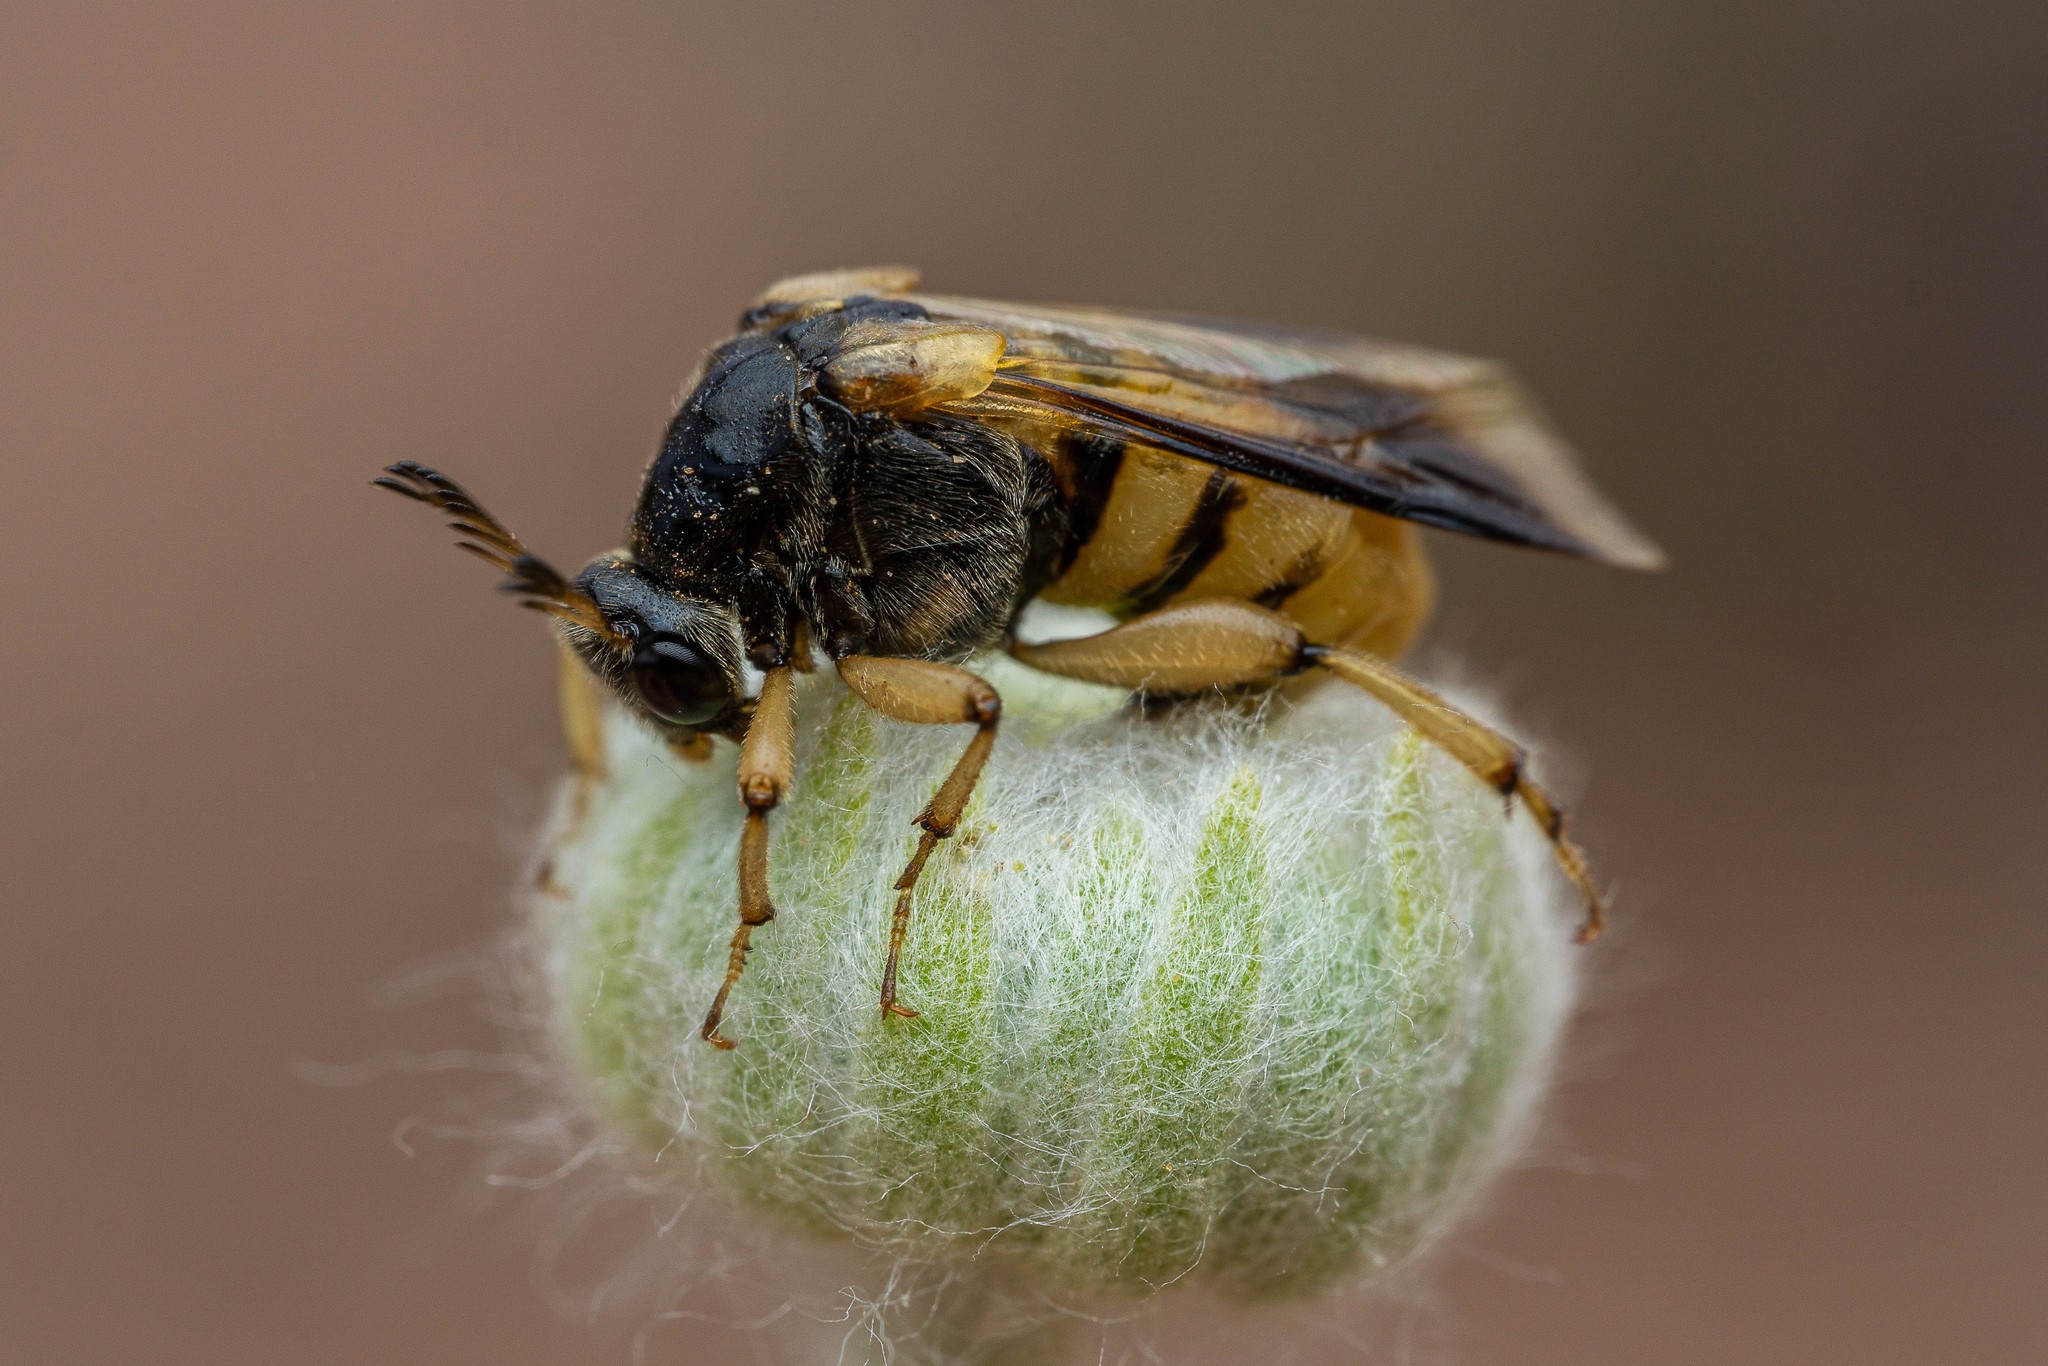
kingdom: Animalia
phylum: Arthropoda
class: Insecta
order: Coleoptera
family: Ripiphoridae
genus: Ripiphorus
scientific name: Ripiphorus
